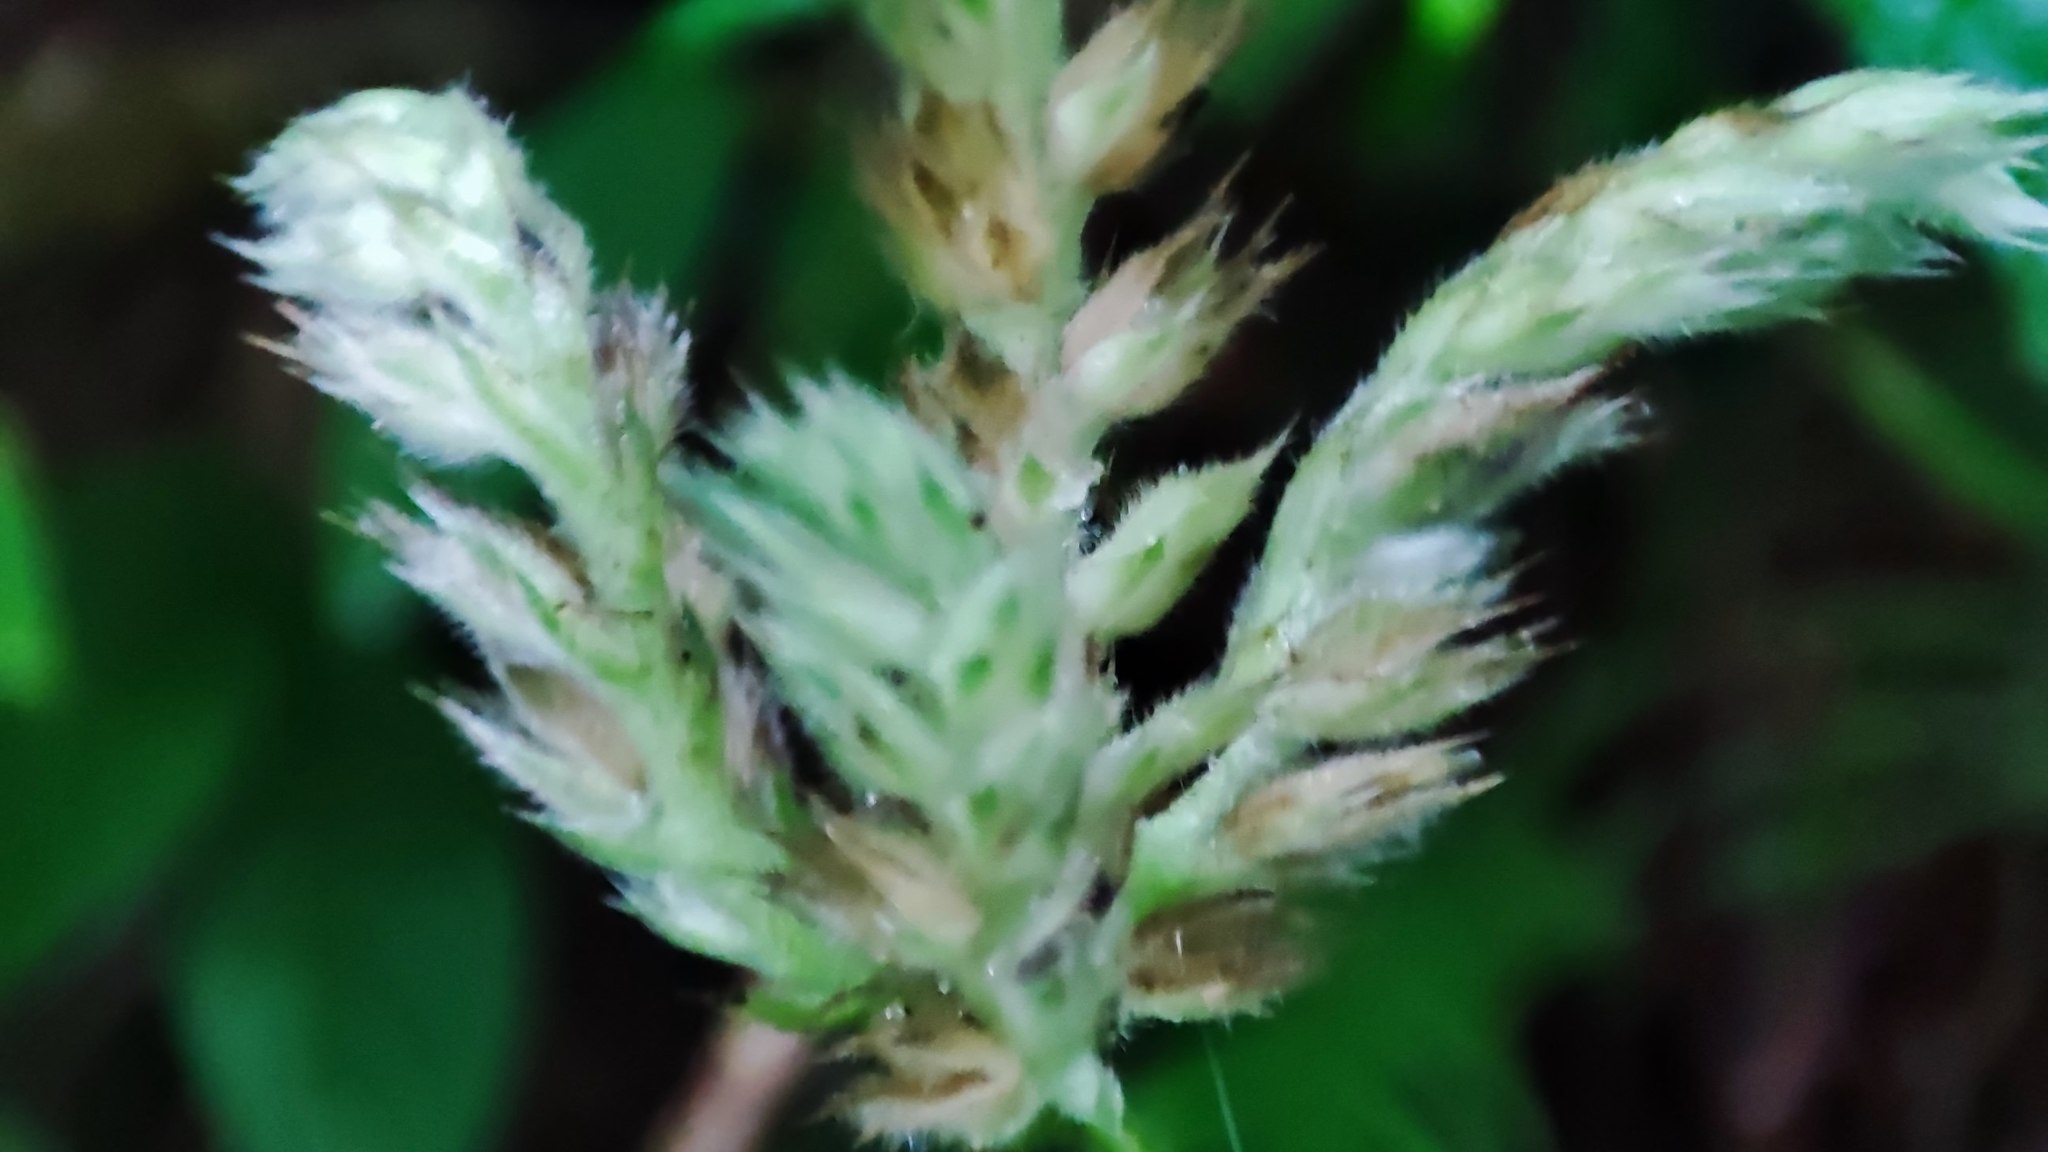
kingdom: Plantae
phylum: Tracheophyta
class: Magnoliopsida
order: Lamiales
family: Acanthaceae
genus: Lepidagathis
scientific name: Lepidagathis formosensis
